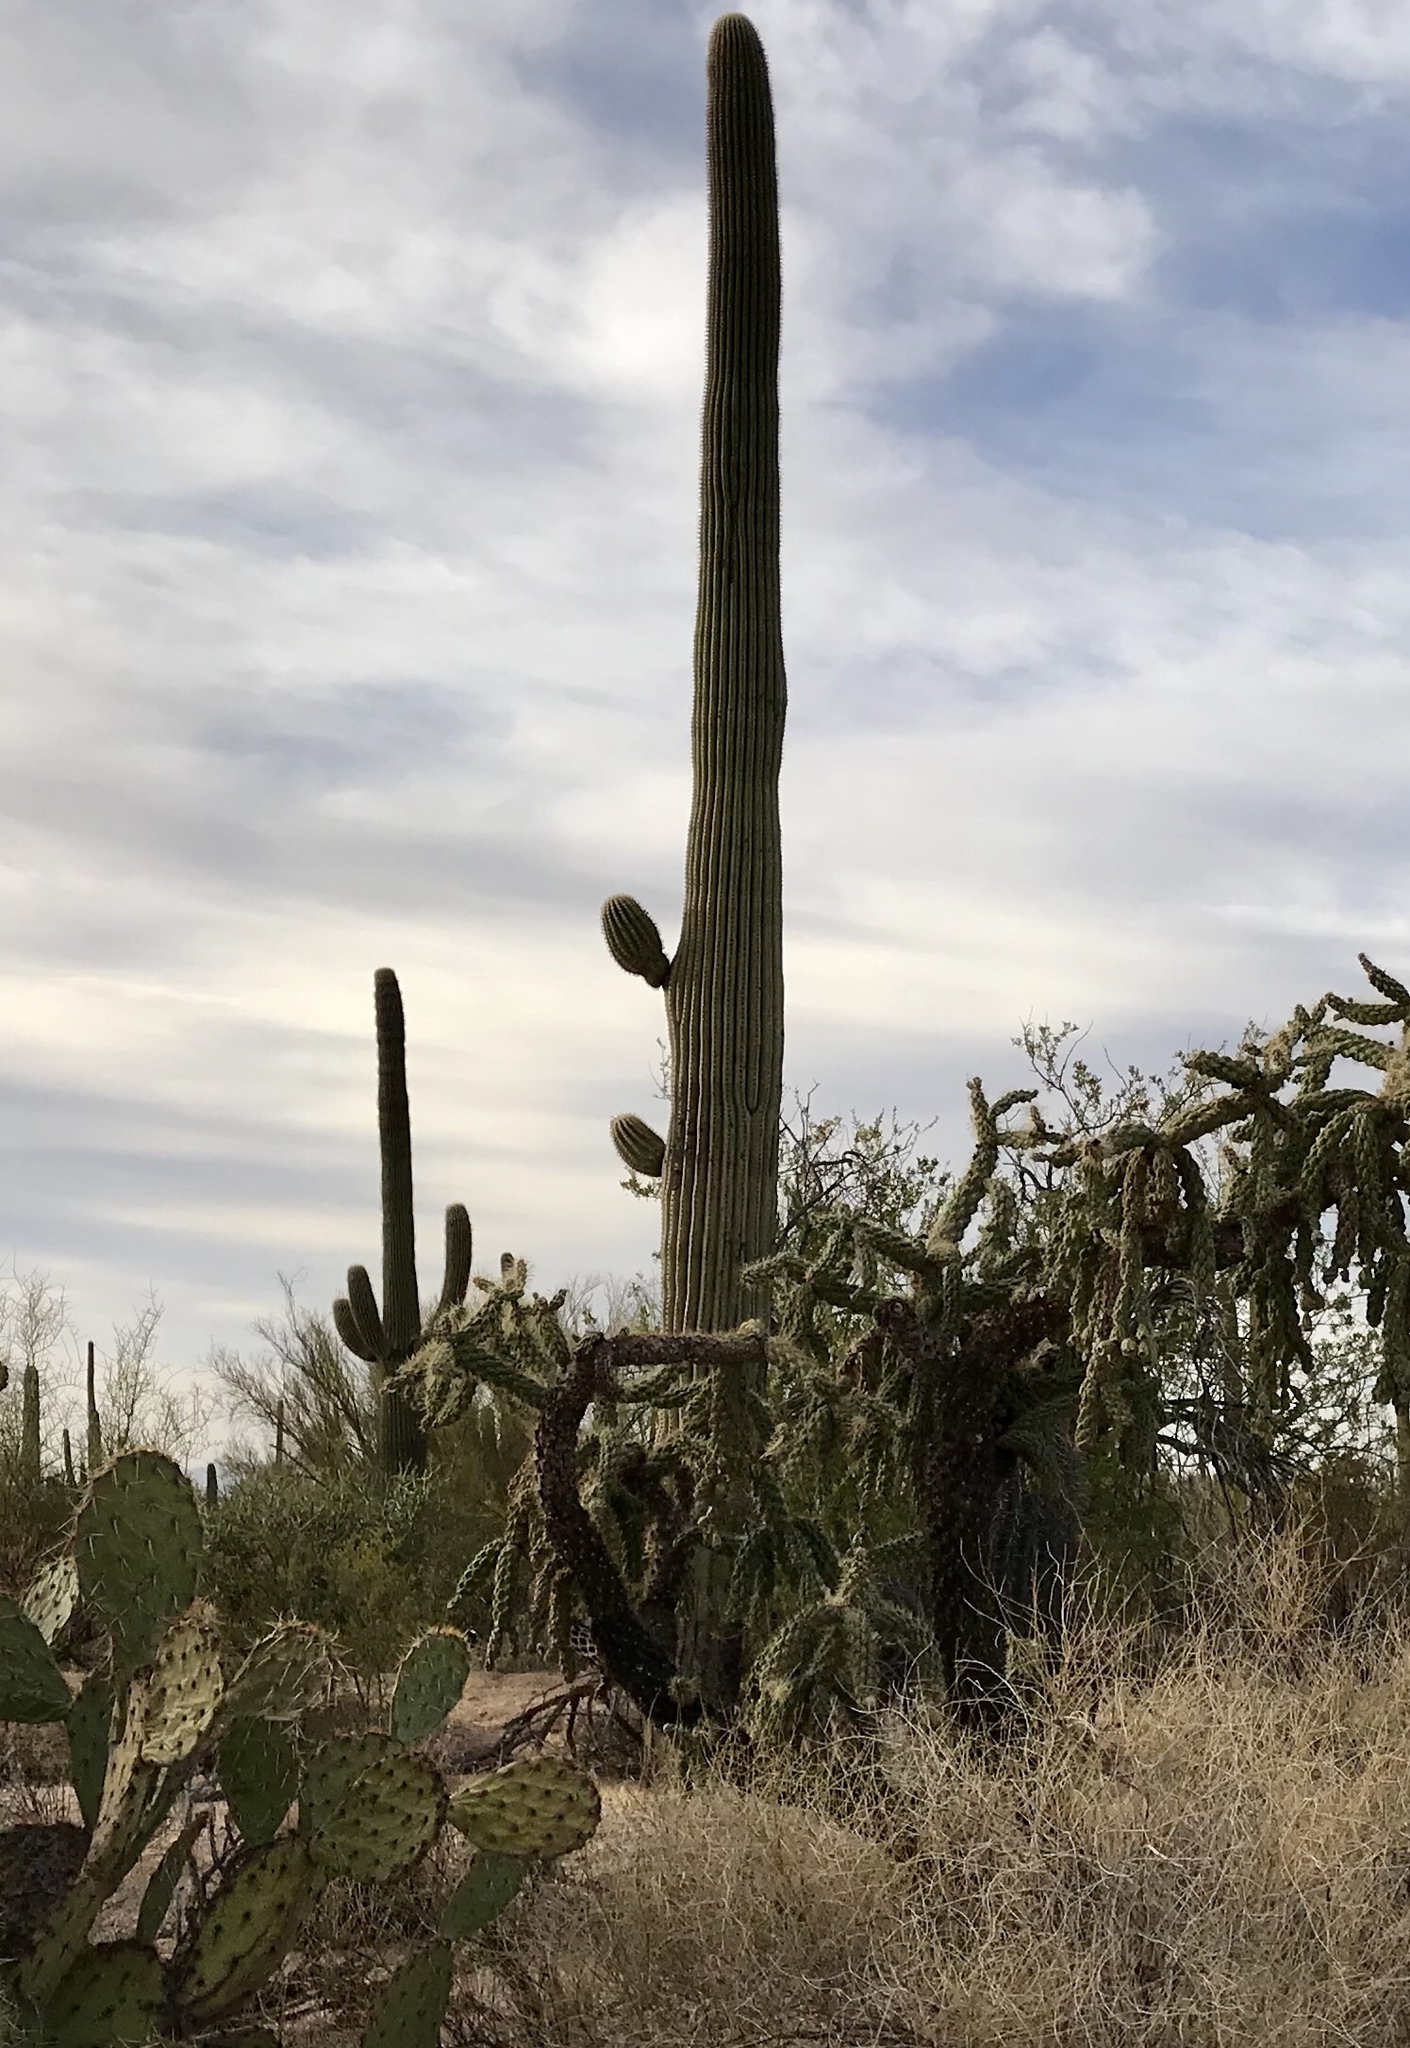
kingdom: Plantae
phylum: Tracheophyta
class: Magnoliopsida
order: Caryophyllales
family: Cactaceae
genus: Carnegiea
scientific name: Carnegiea gigantea
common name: Saguaro
